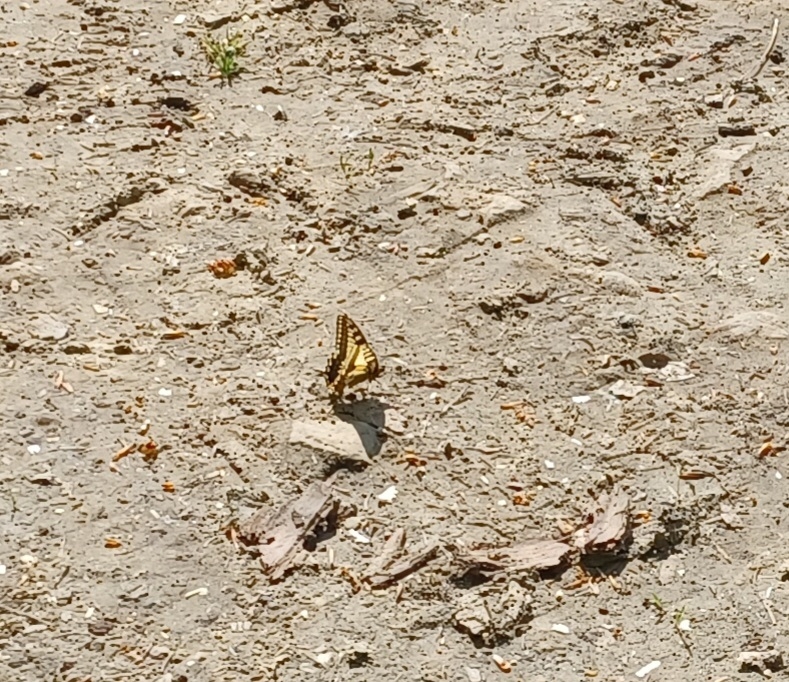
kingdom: Animalia
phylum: Arthropoda
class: Insecta
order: Lepidoptera
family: Papilionidae
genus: Papilio
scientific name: Papilio machaon
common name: Swallowtail
